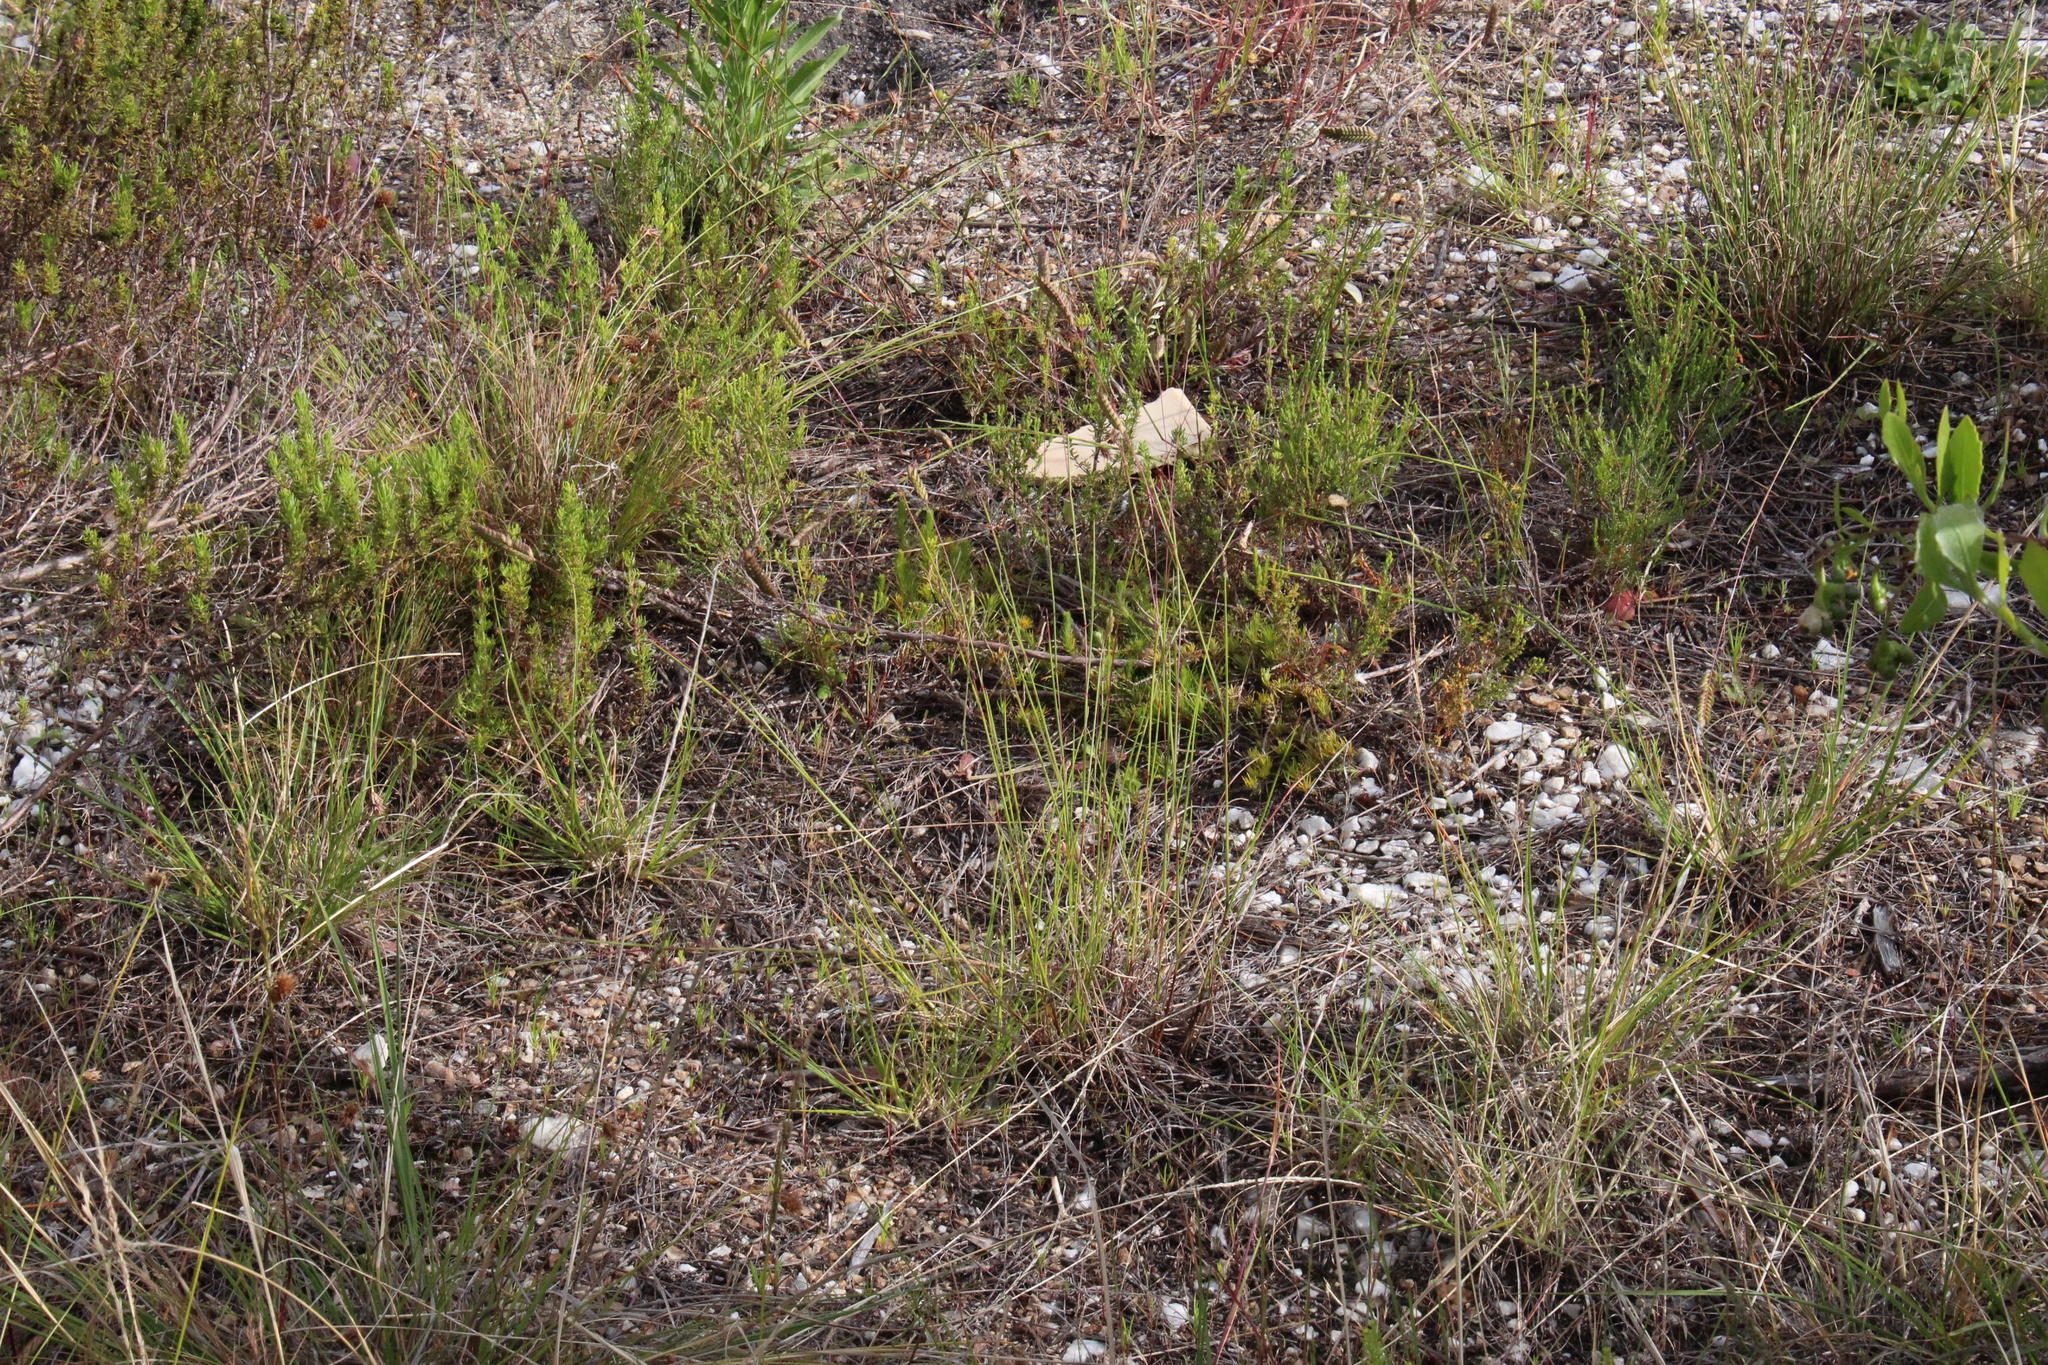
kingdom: Plantae
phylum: Tracheophyta
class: Liliopsida
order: Poales
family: Poaceae
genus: Tribolium
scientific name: Tribolium uniolae
